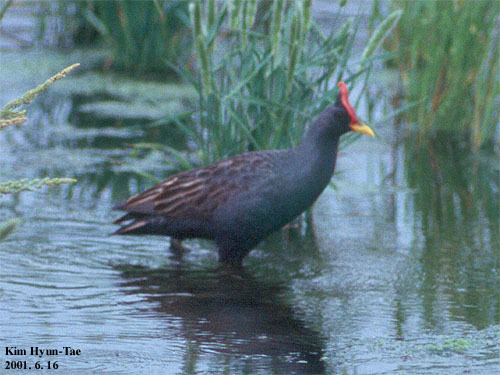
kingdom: Animalia
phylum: Chordata
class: Aves
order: Gruiformes
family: Rallidae
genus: Gallicrex
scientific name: Gallicrex cinerea
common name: Watercock
